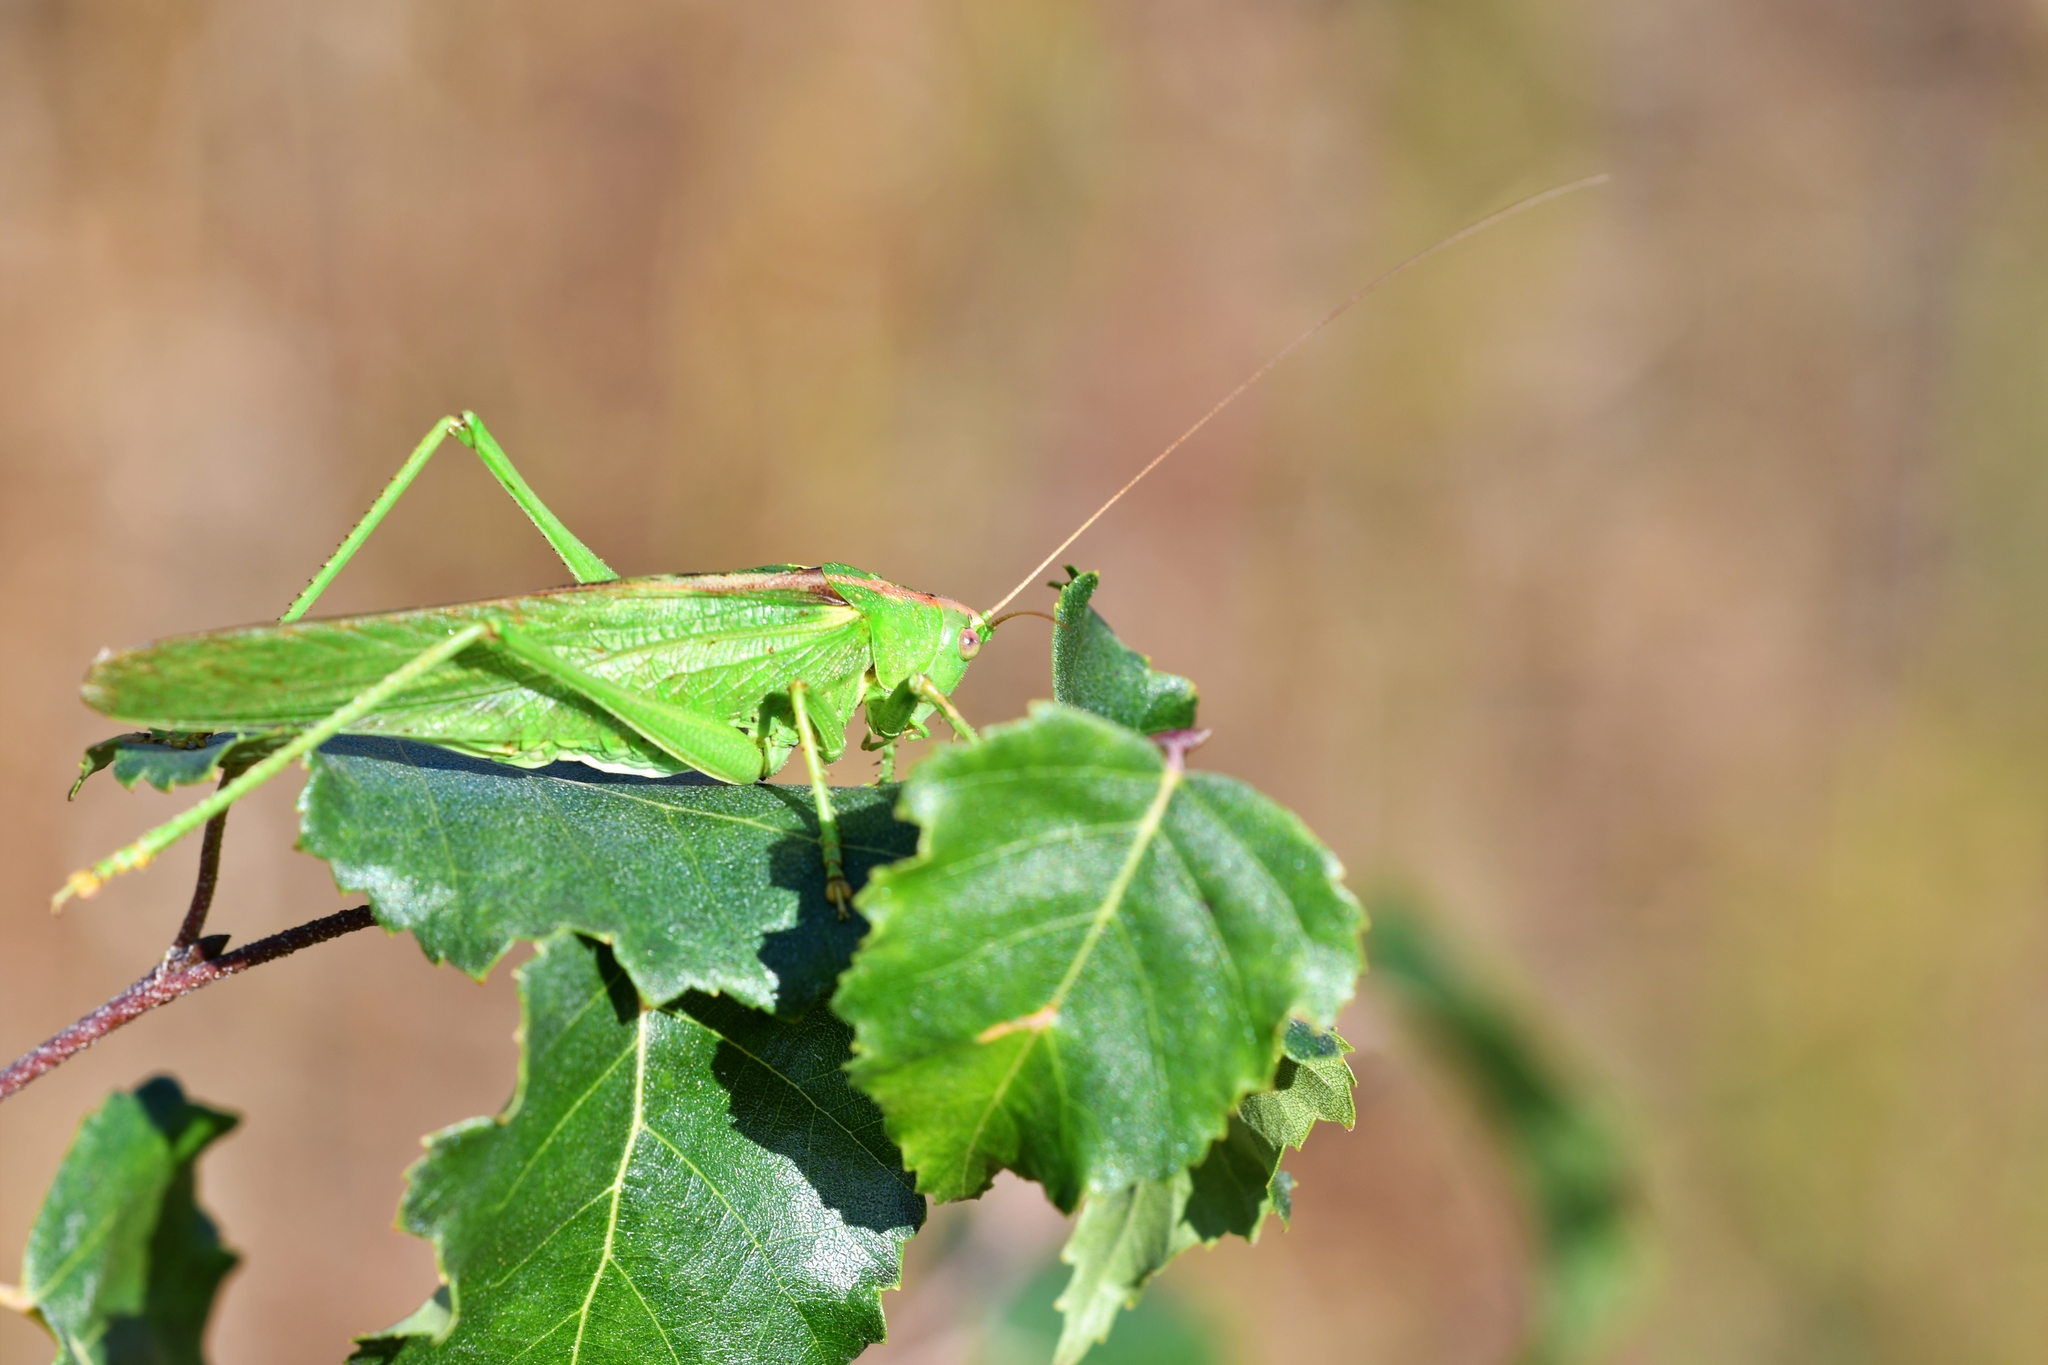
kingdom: Animalia
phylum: Arthropoda
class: Insecta
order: Orthoptera
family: Tettigoniidae
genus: Tettigonia
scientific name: Tettigonia viridissima
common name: Great green bush-cricket
